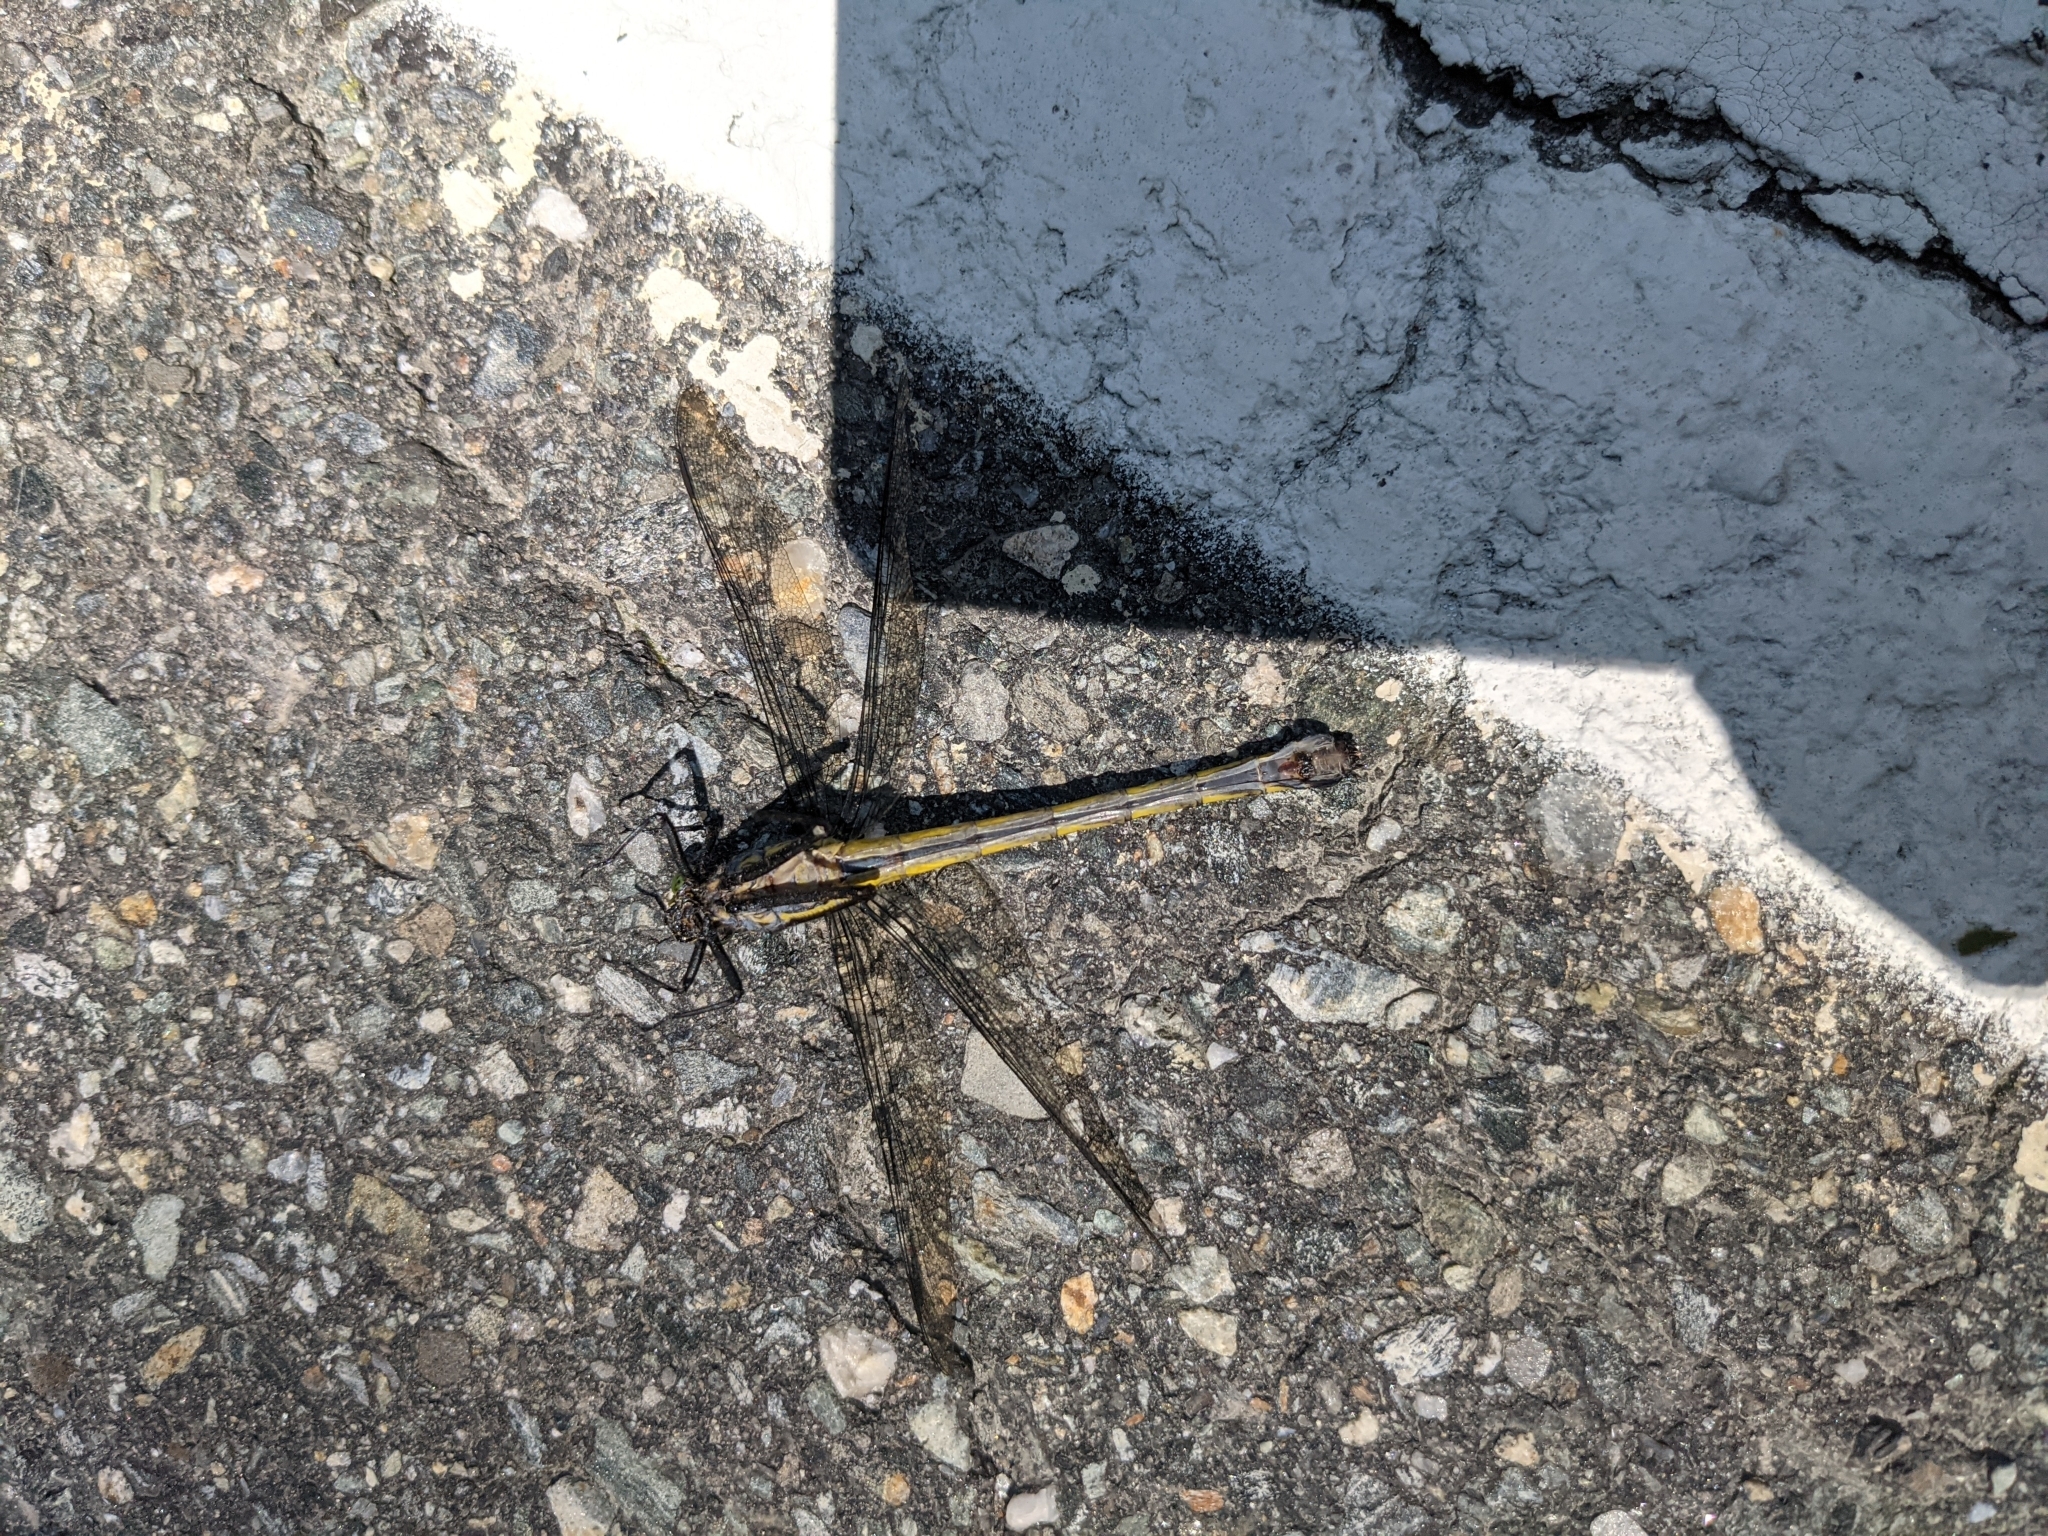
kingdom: Animalia
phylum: Arthropoda
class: Insecta
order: Odonata
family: Gomphidae
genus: Hagenius
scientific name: Hagenius brevistylus
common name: Dragonhunter
